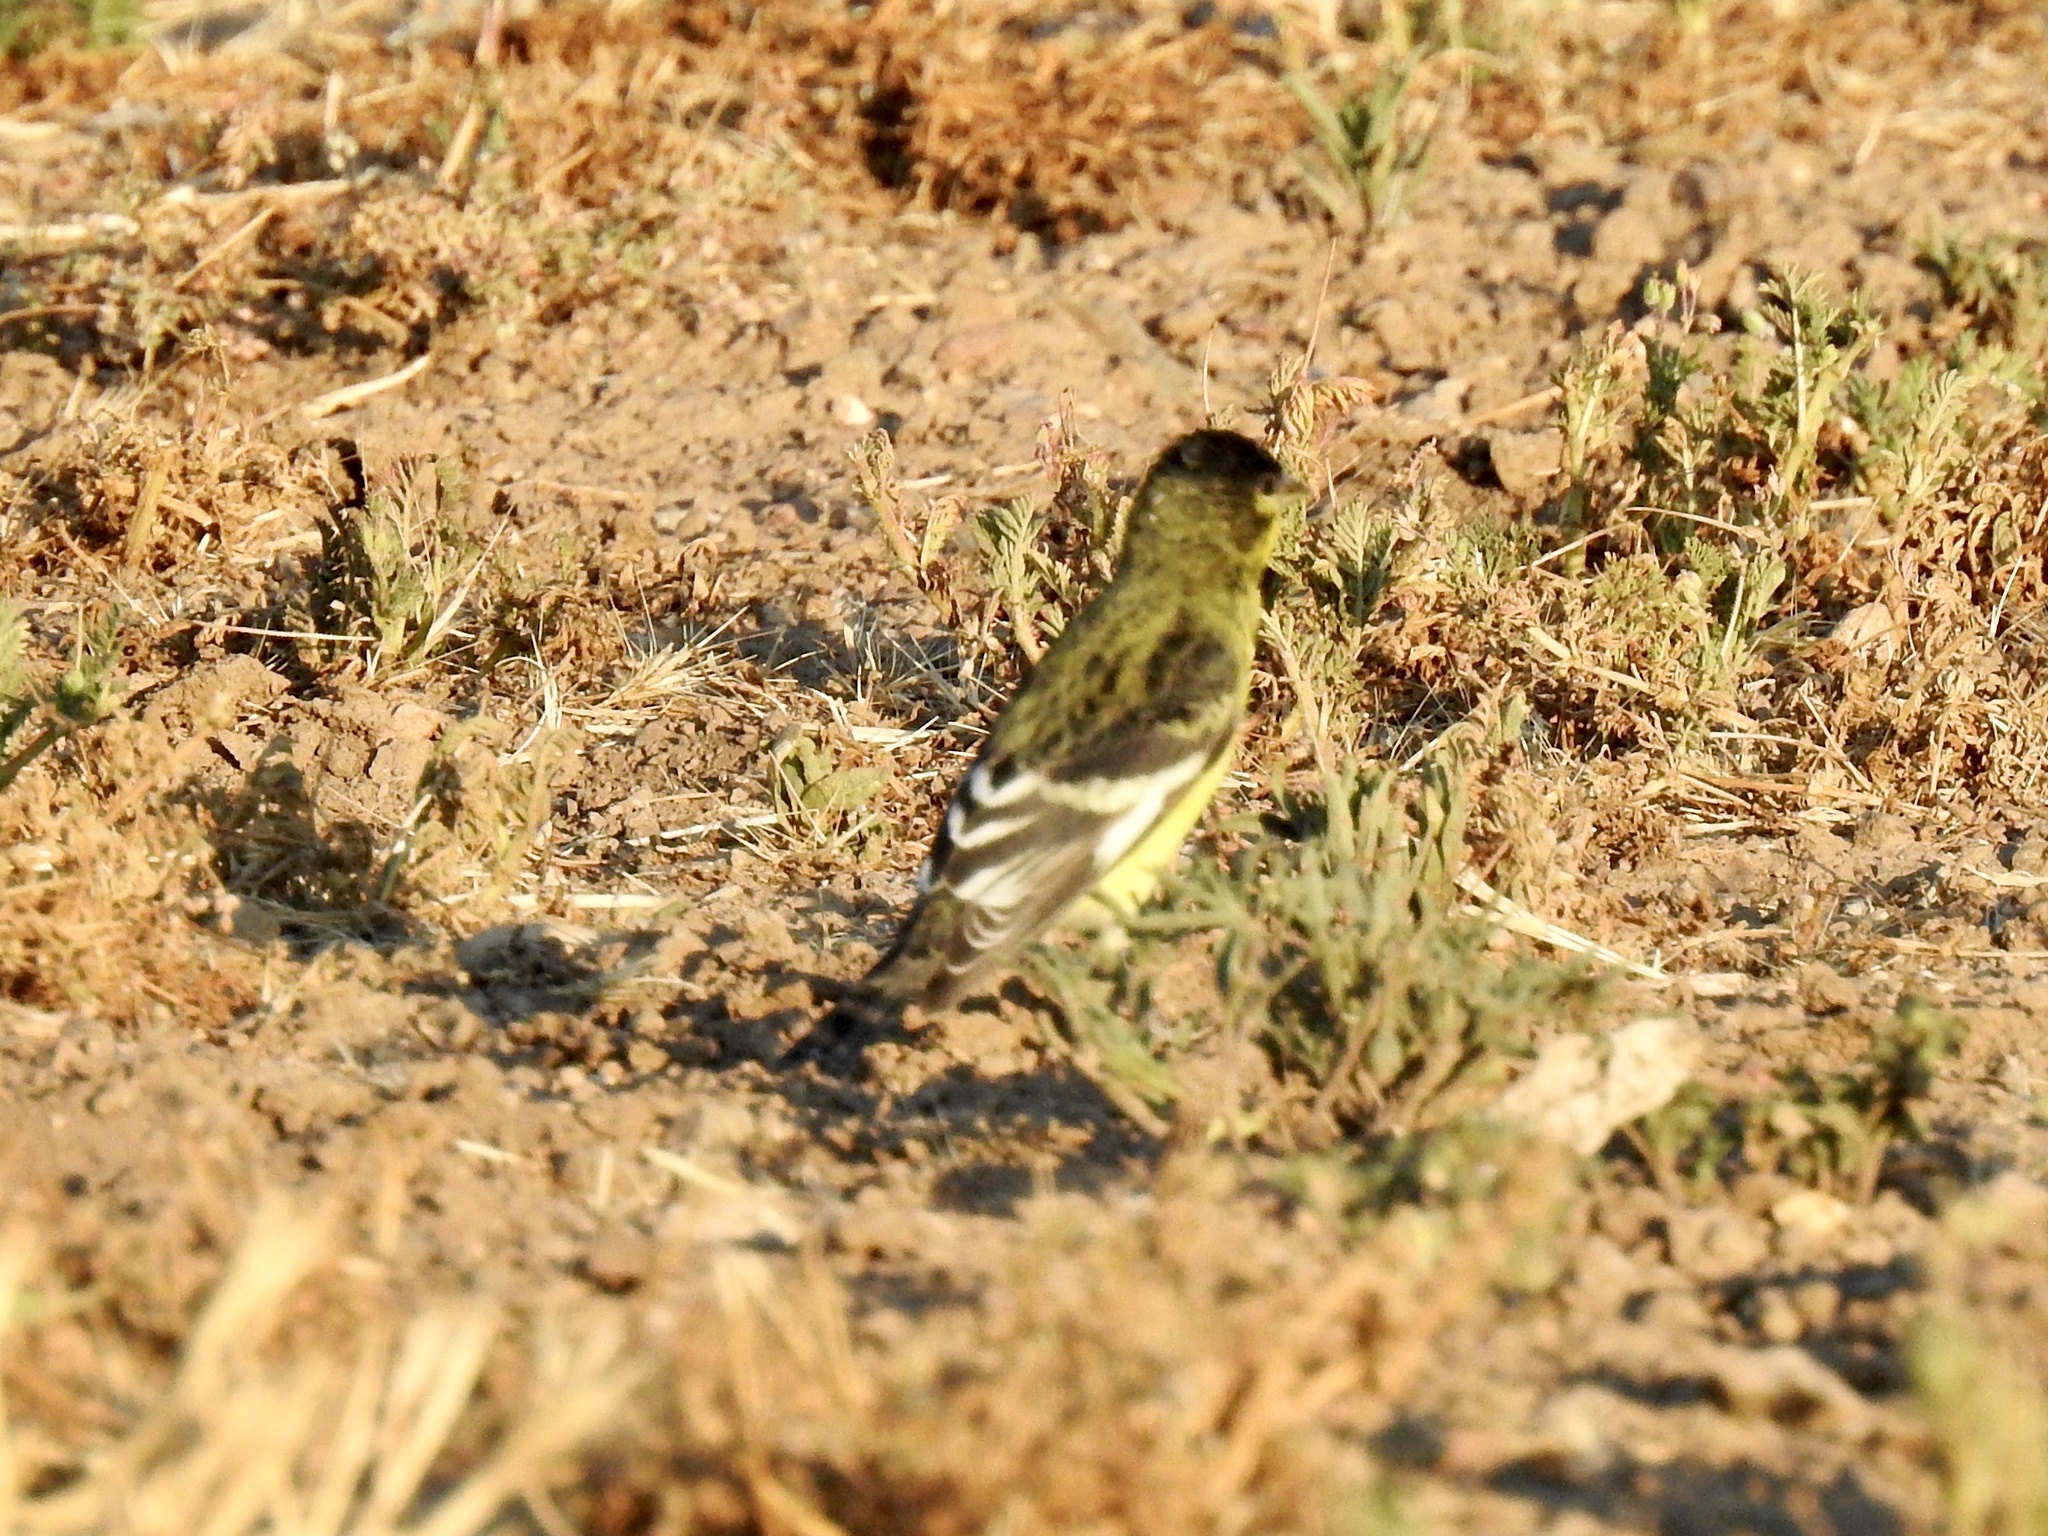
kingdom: Animalia
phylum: Chordata
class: Aves
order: Passeriformes
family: Fringillidae
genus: Spinus
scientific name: Spinus psaltria
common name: Lesser goldfinch
